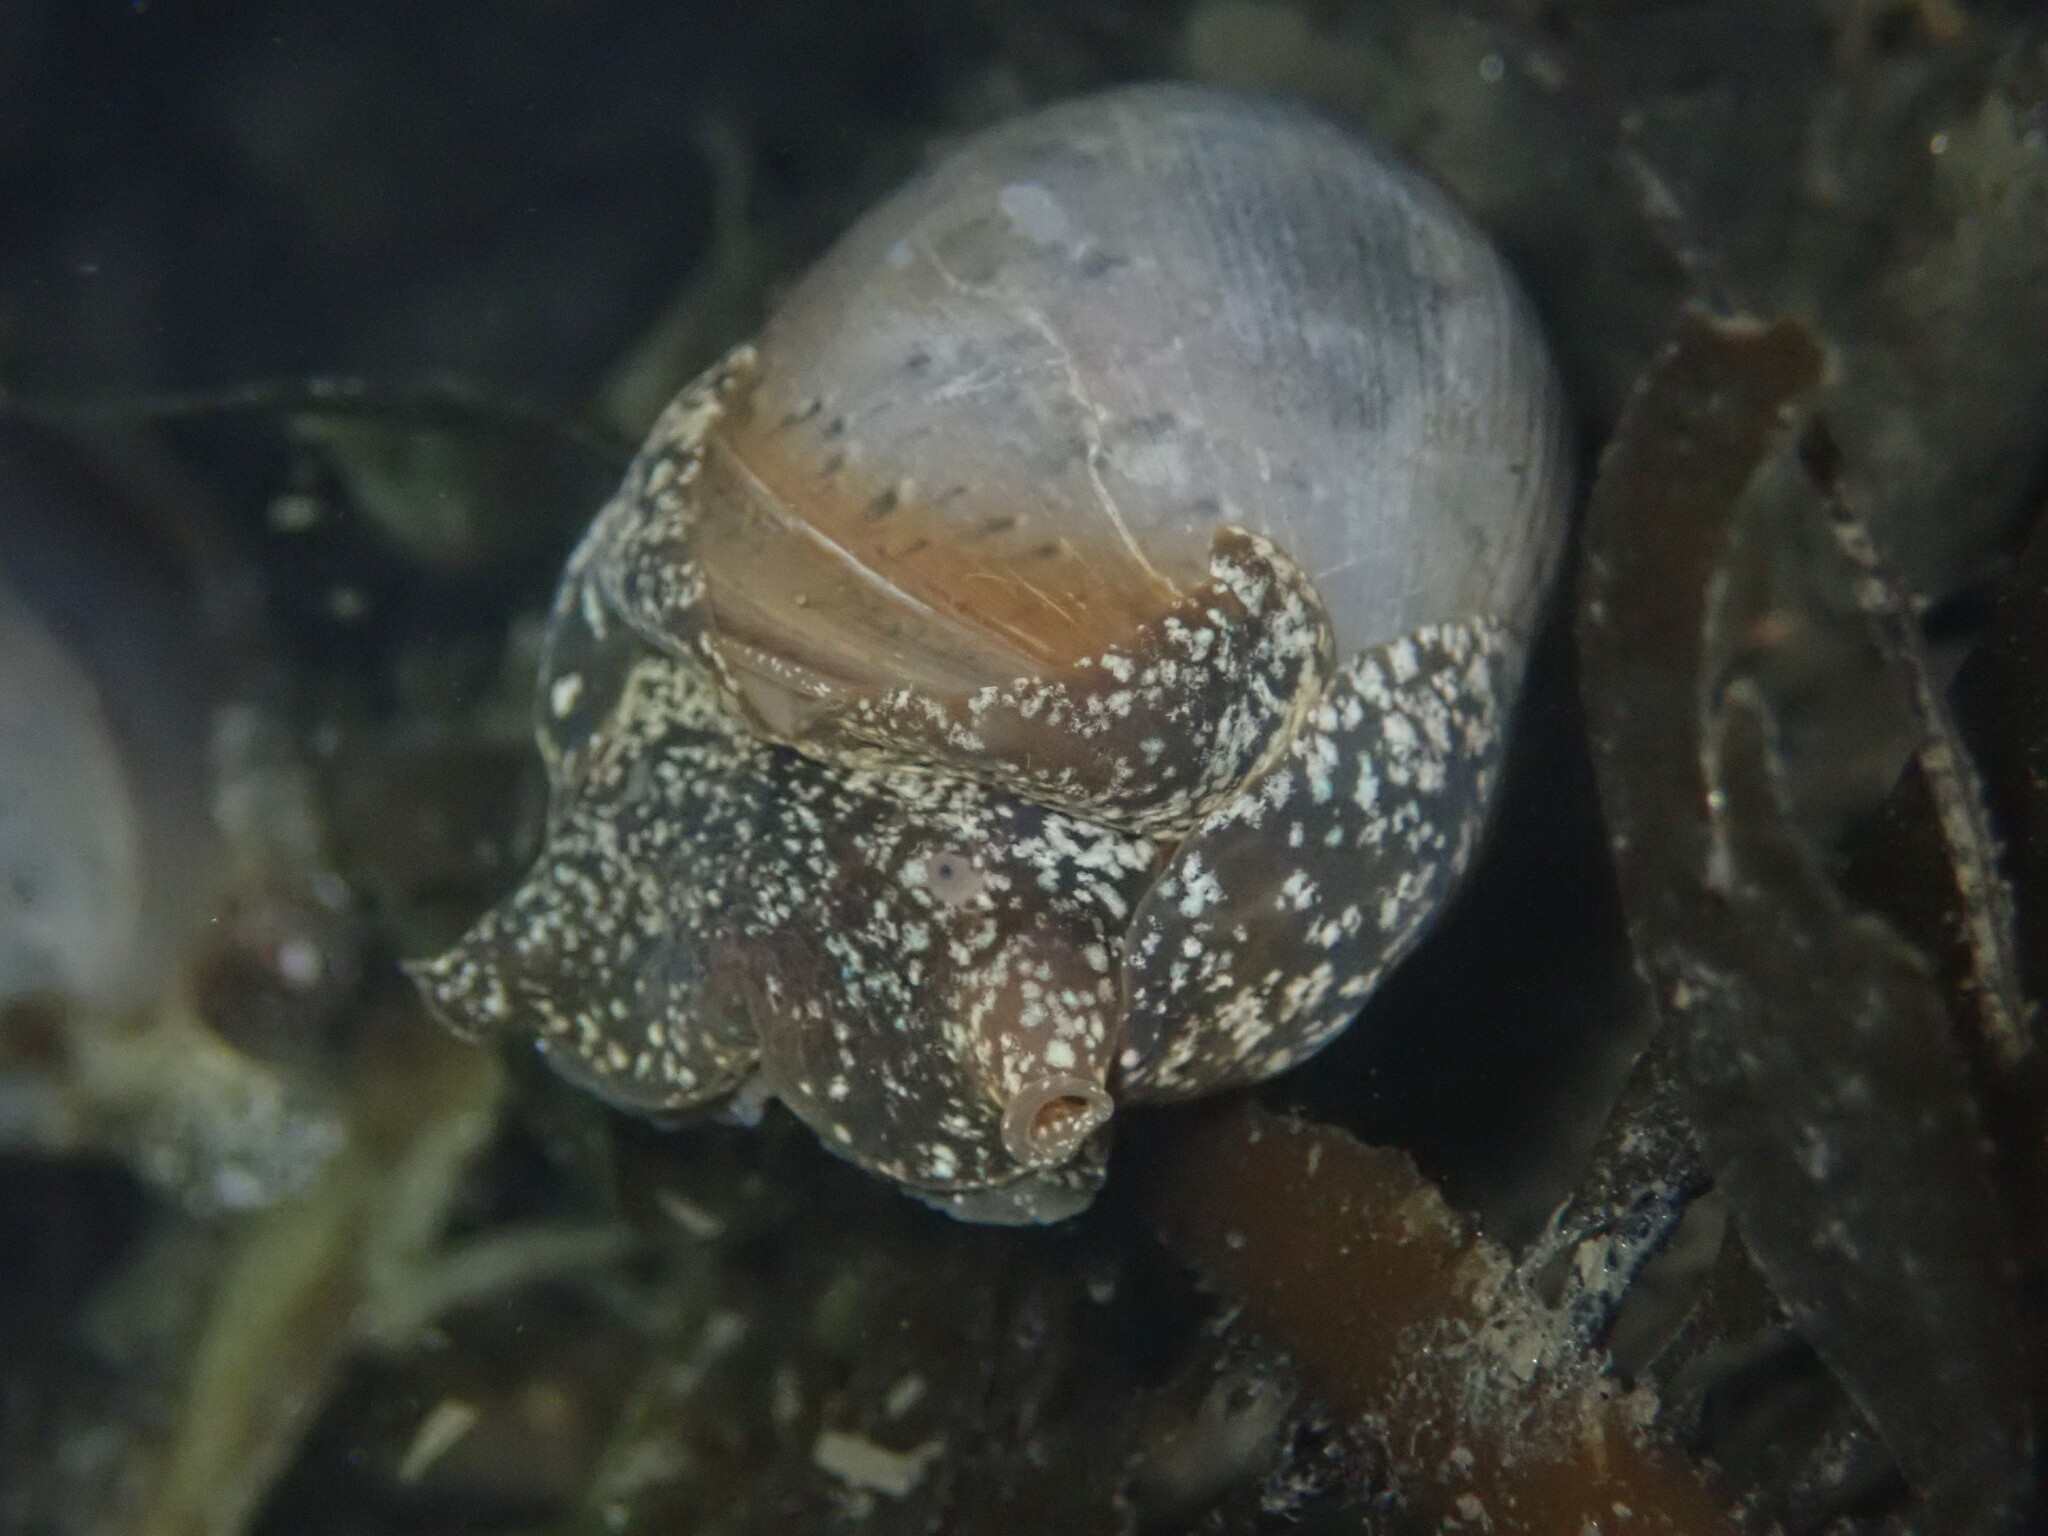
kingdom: Animalia
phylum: Mollusca
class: Gastropoda
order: Cephalaspidea
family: Bullidae
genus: Bulla
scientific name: Bulla gouldiana
